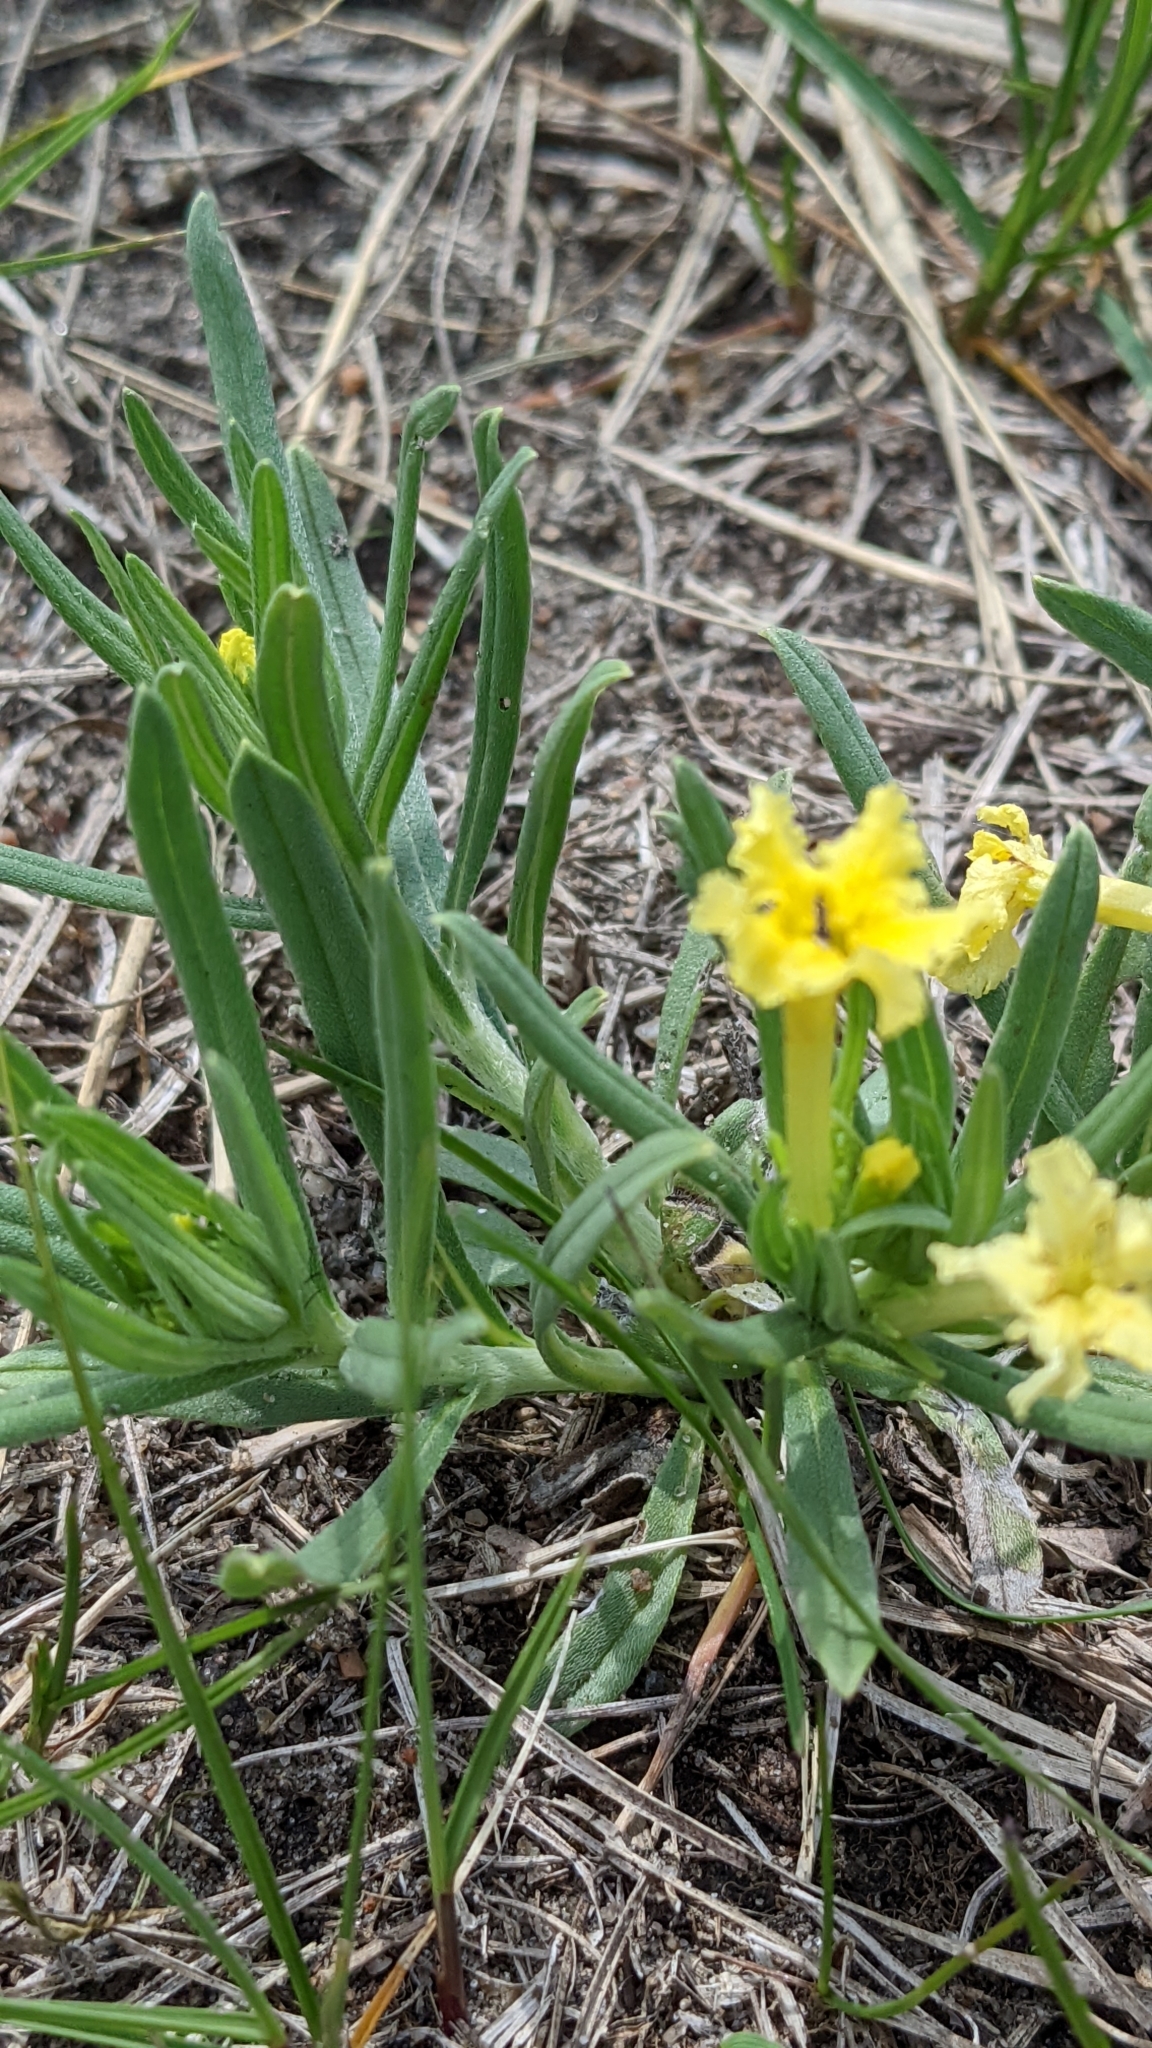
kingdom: Plantae
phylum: Tracheophyta
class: Magnoliopsida
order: Boraginales
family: Boraginaceae
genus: Lithospermum
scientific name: Lithospermum incisum
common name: Fringed gromwell
